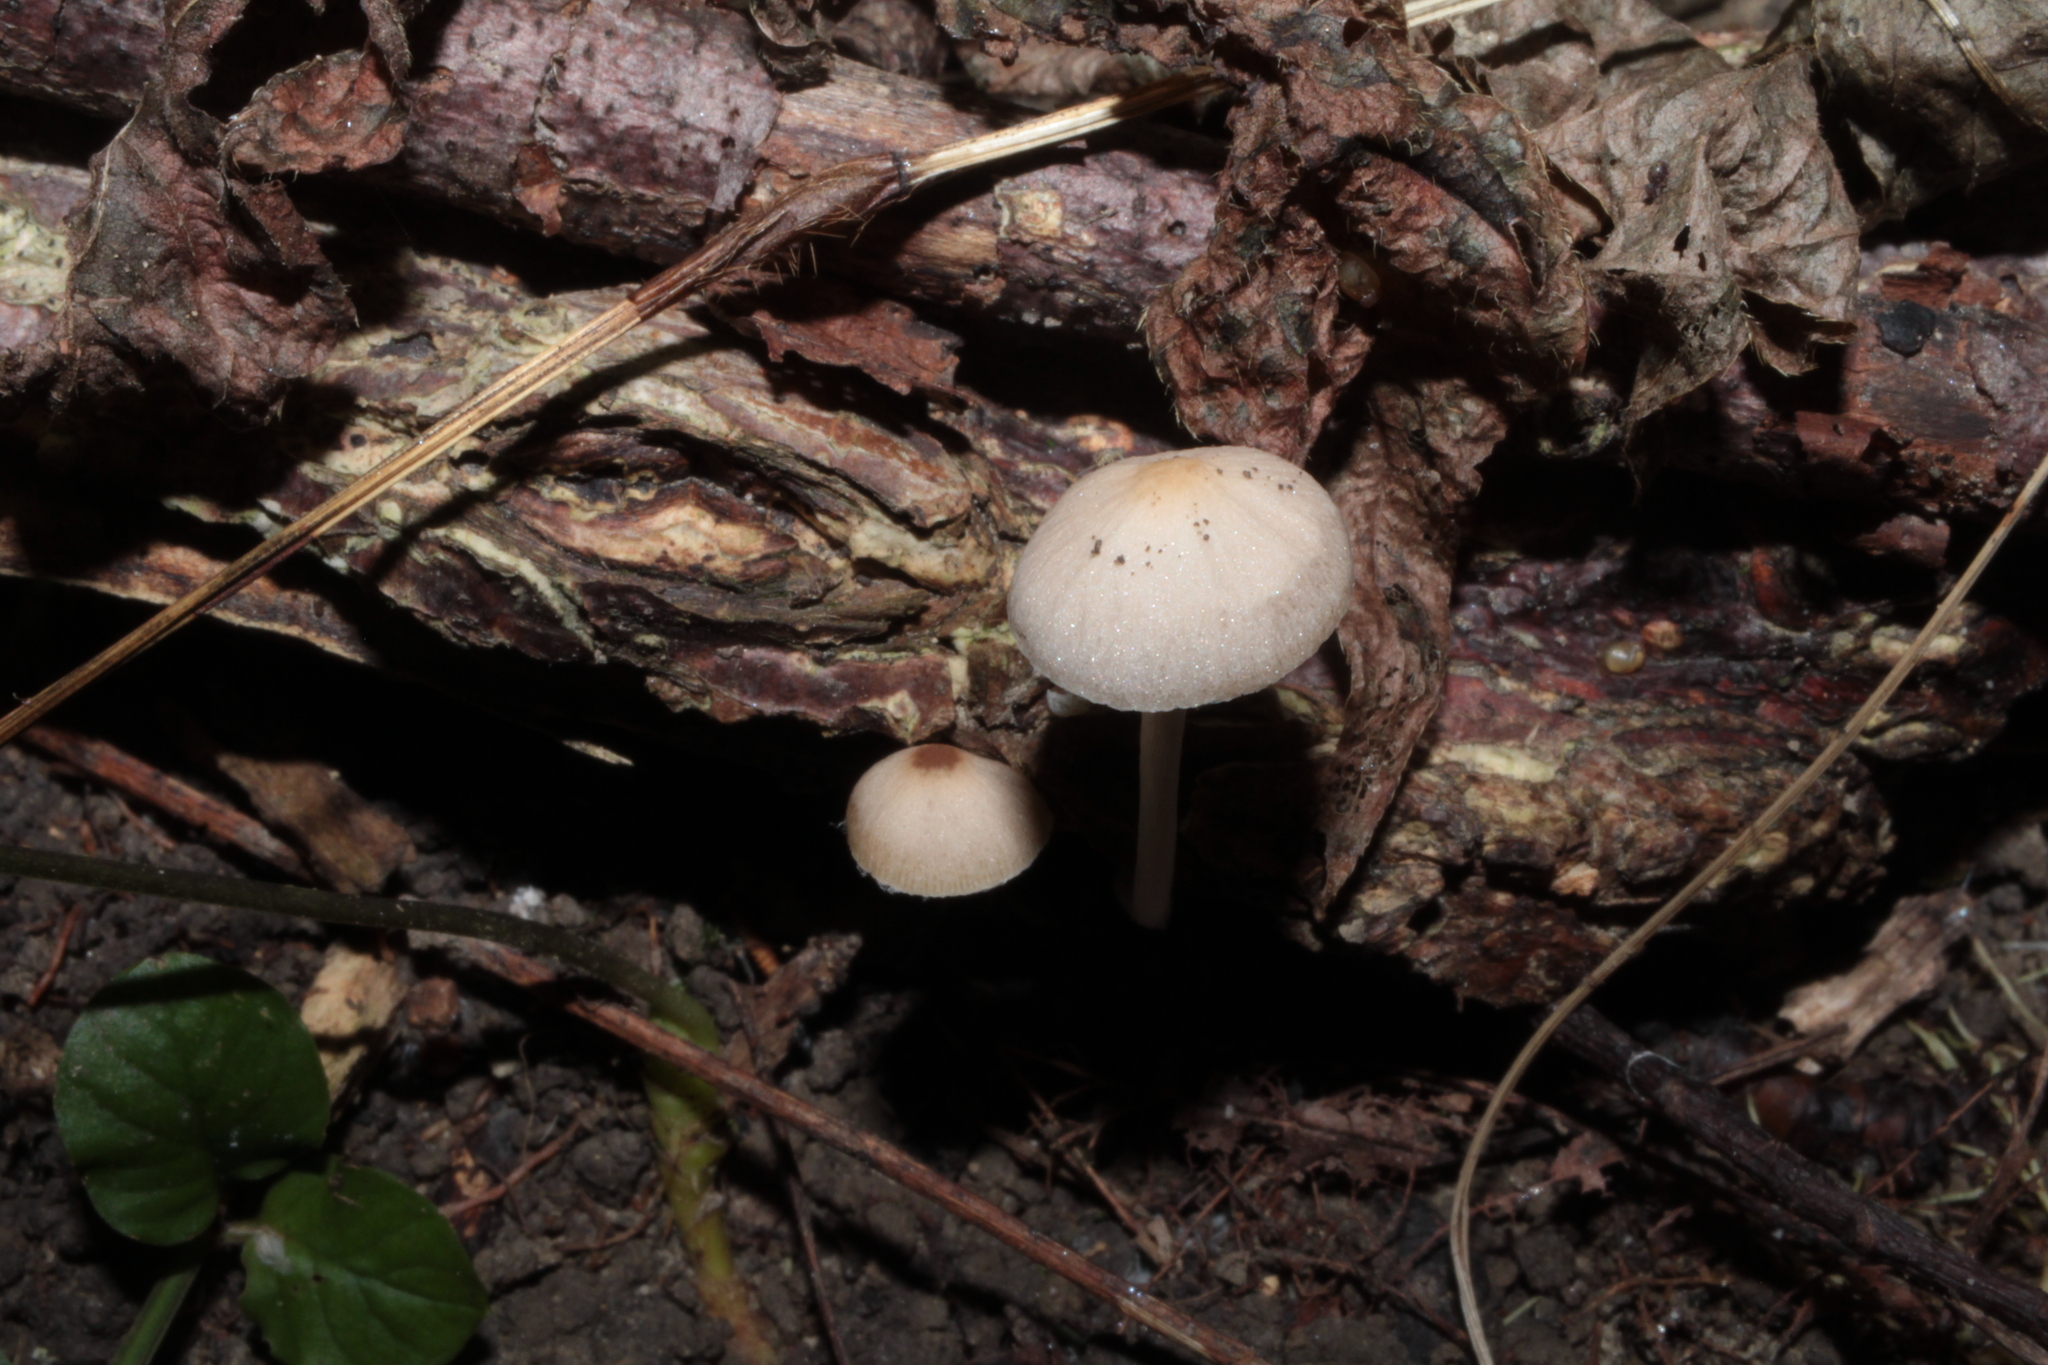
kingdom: Fungi
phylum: Basidiomycota
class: Agaricomycetes
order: Agaricales
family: Psathyrellaceae
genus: Psathyrella
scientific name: Psathyrella amarescens
